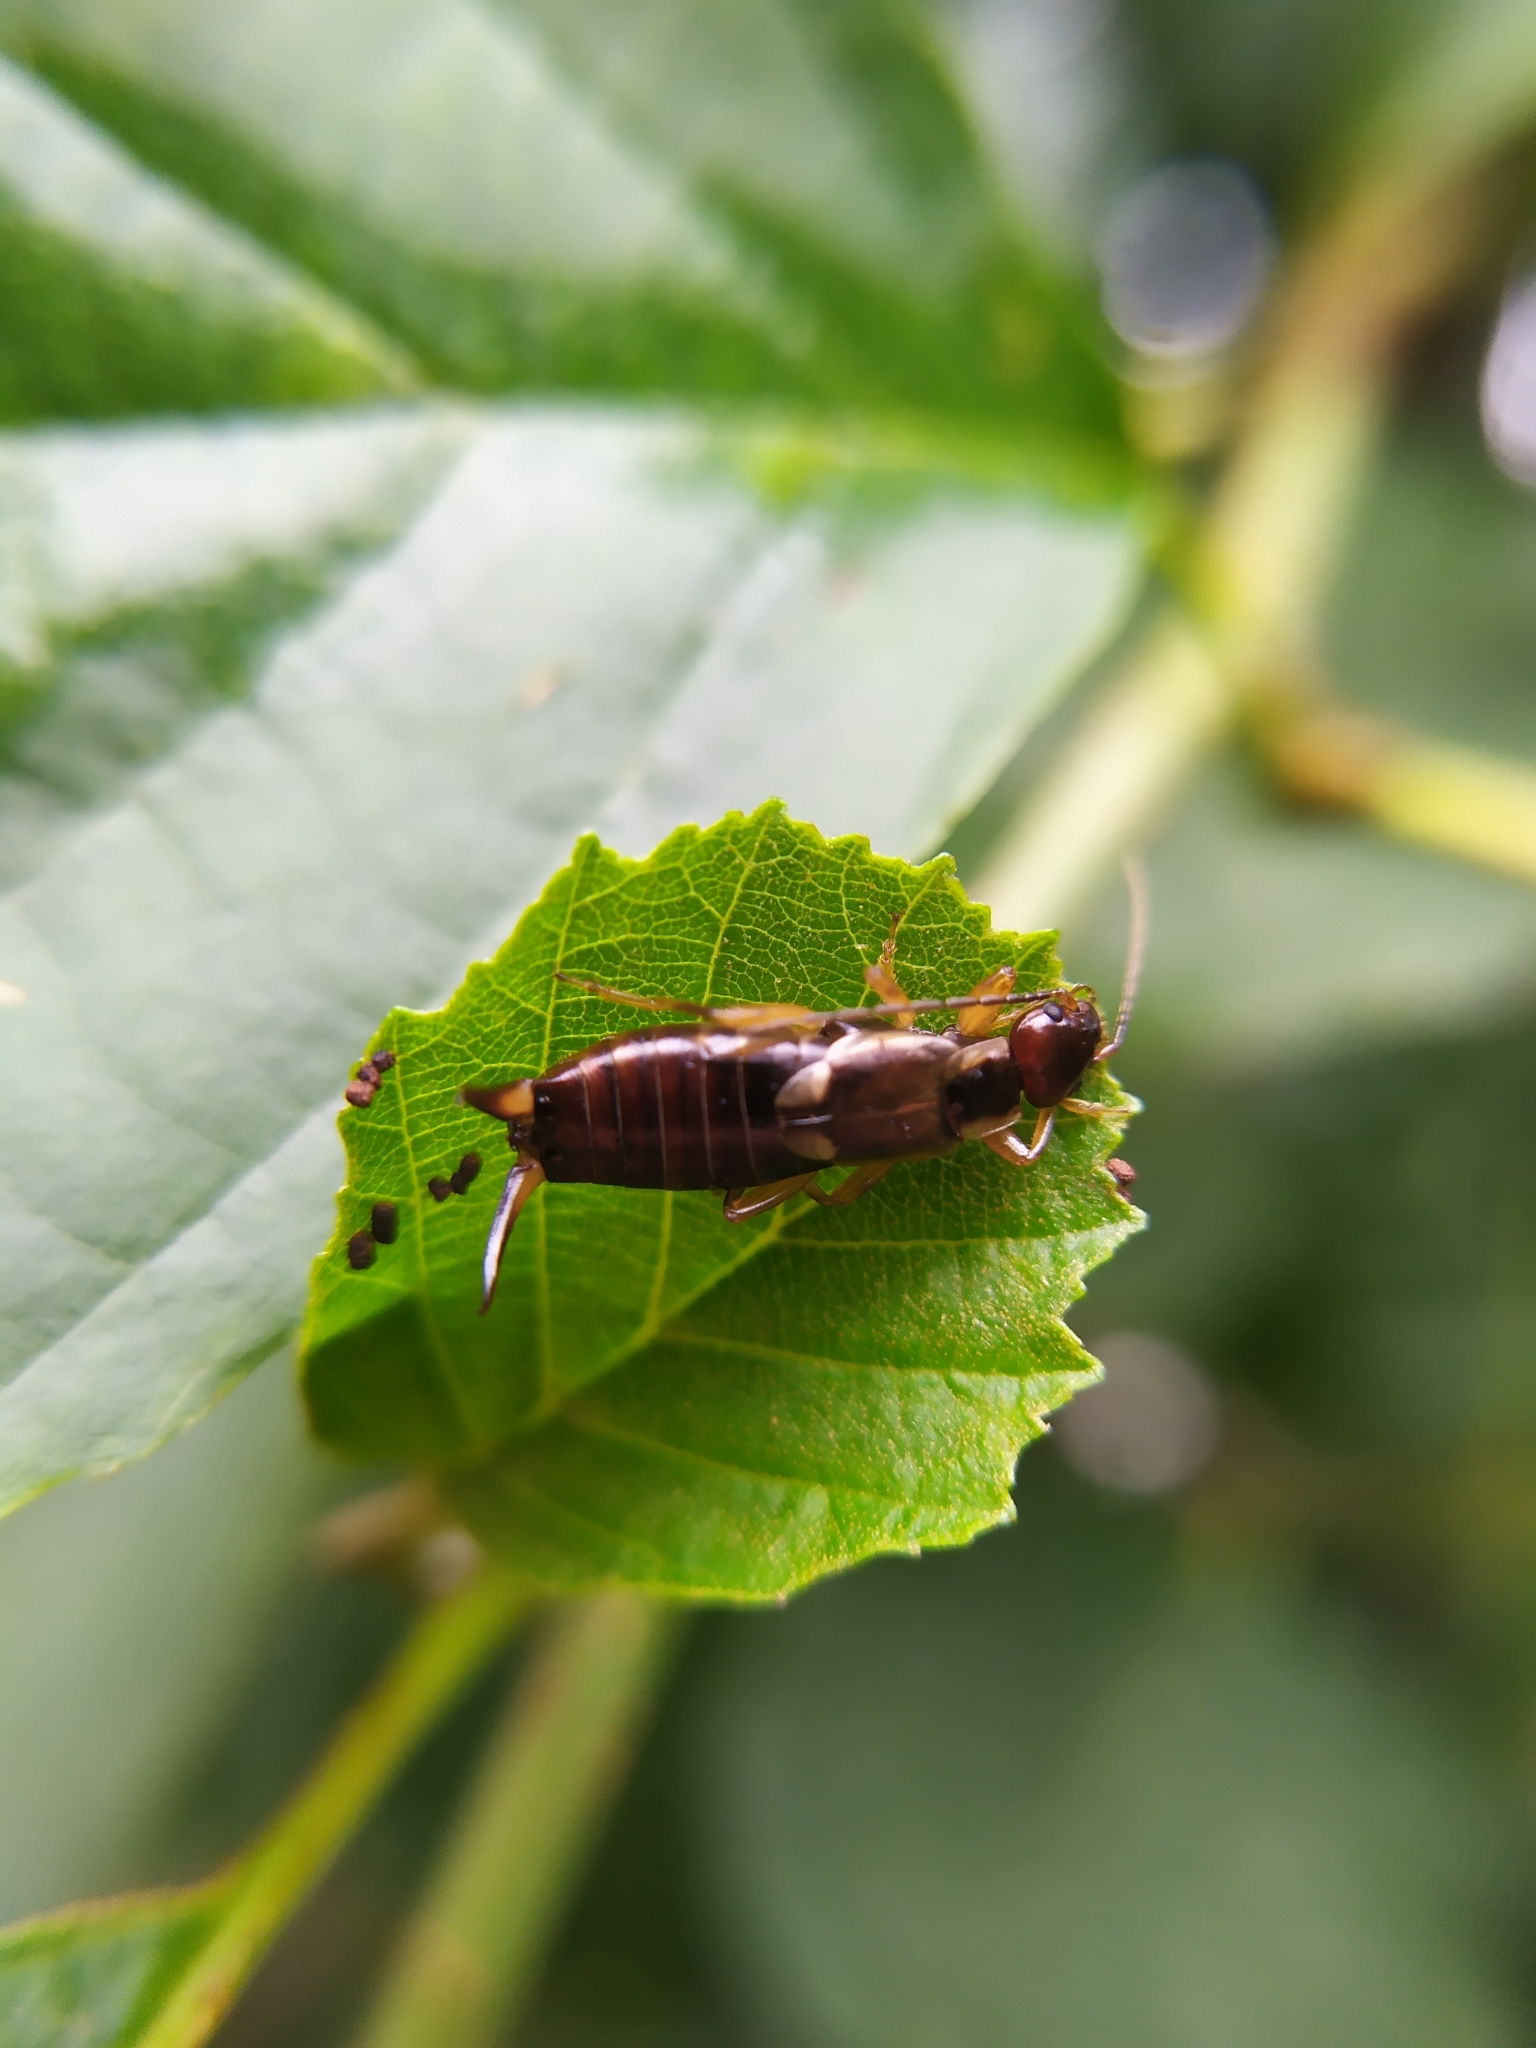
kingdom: Animalia
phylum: Arthropoda
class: Insecta
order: Dermaptera
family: Forficulidae
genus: Forficula
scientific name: Forficula
